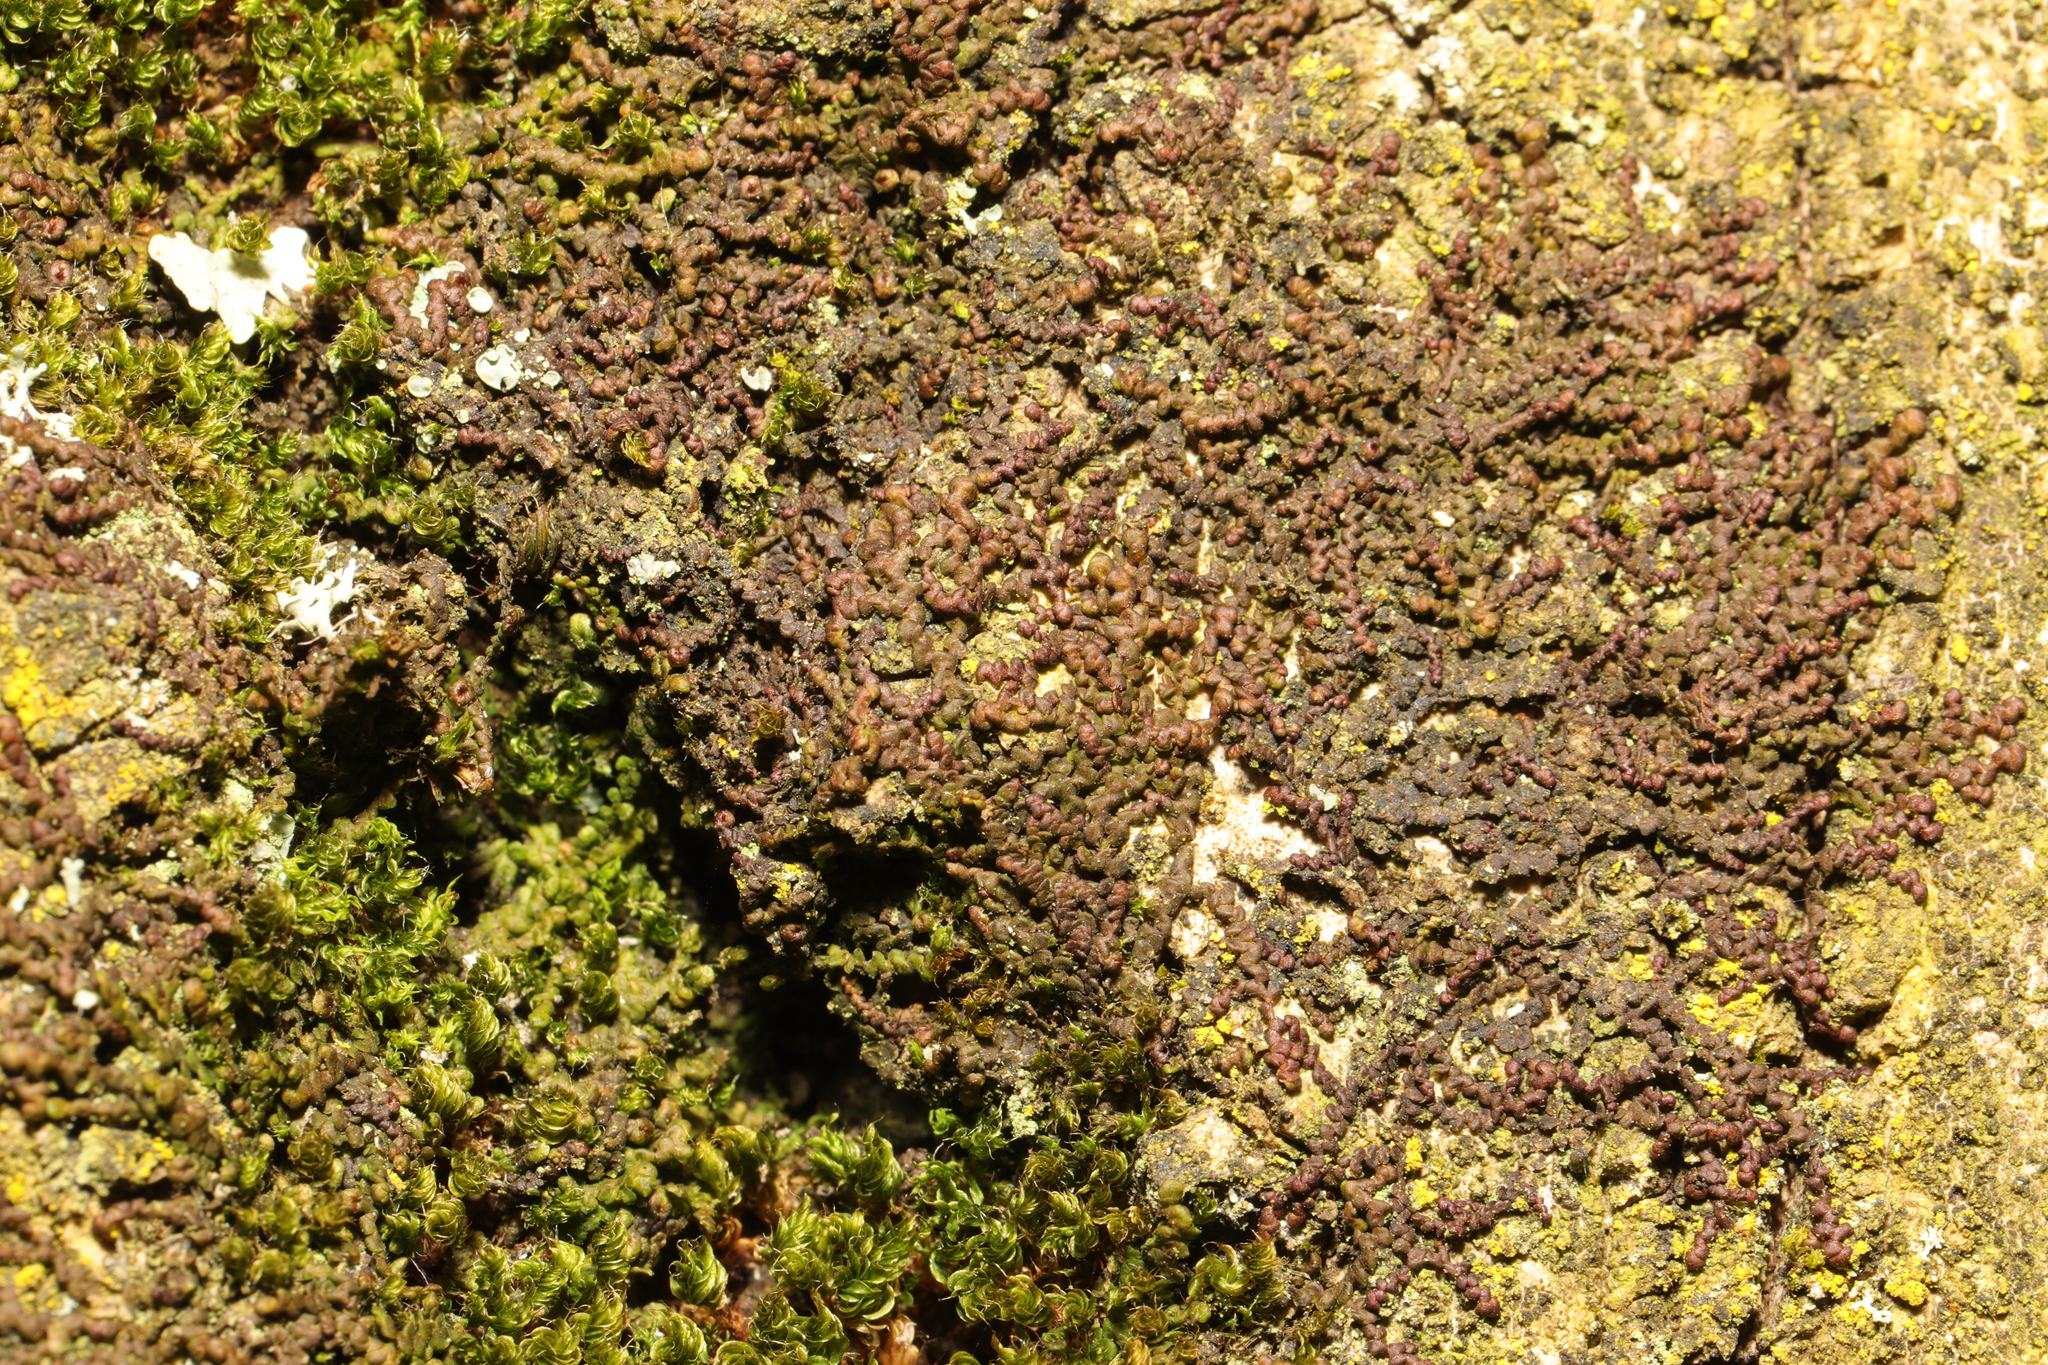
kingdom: Plantae
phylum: Marchantiophyta
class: Jungermanniopsida
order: Porellales
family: Frullaniaceae
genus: Frullania
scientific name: Frullania dilatata
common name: Dilated scalewort
